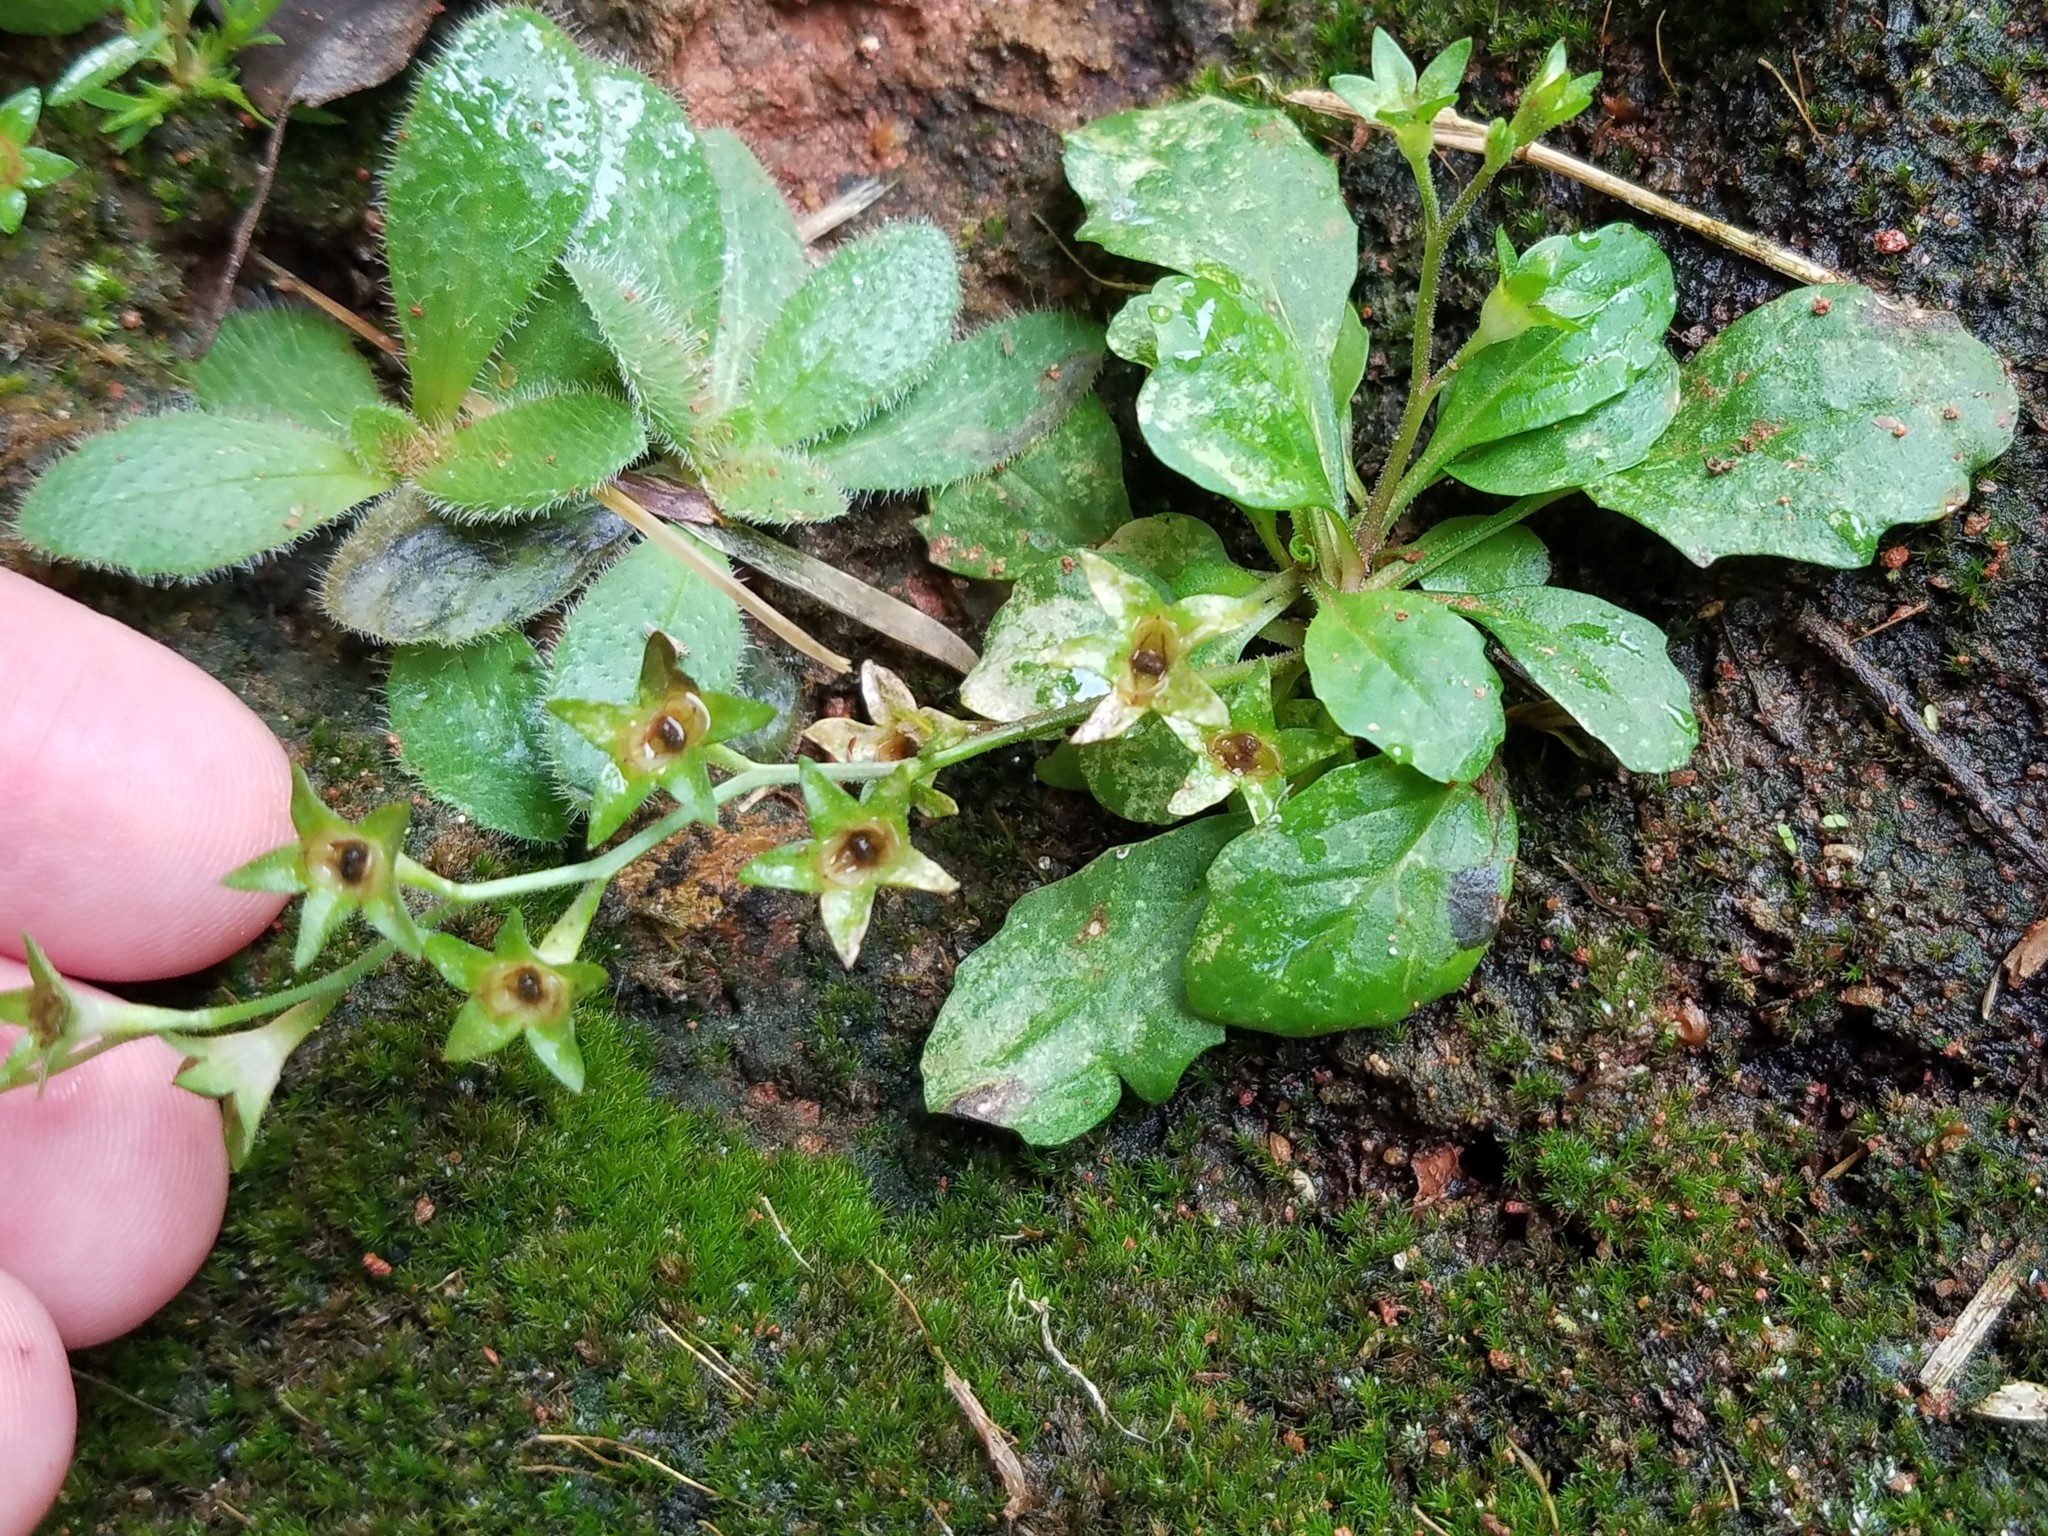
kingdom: Plantae
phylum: Tracheophyta
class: Magnoliopsida
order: Lamiales
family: Mazaceae
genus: Mazus
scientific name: Mazus pumilus
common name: Japanese mazus
